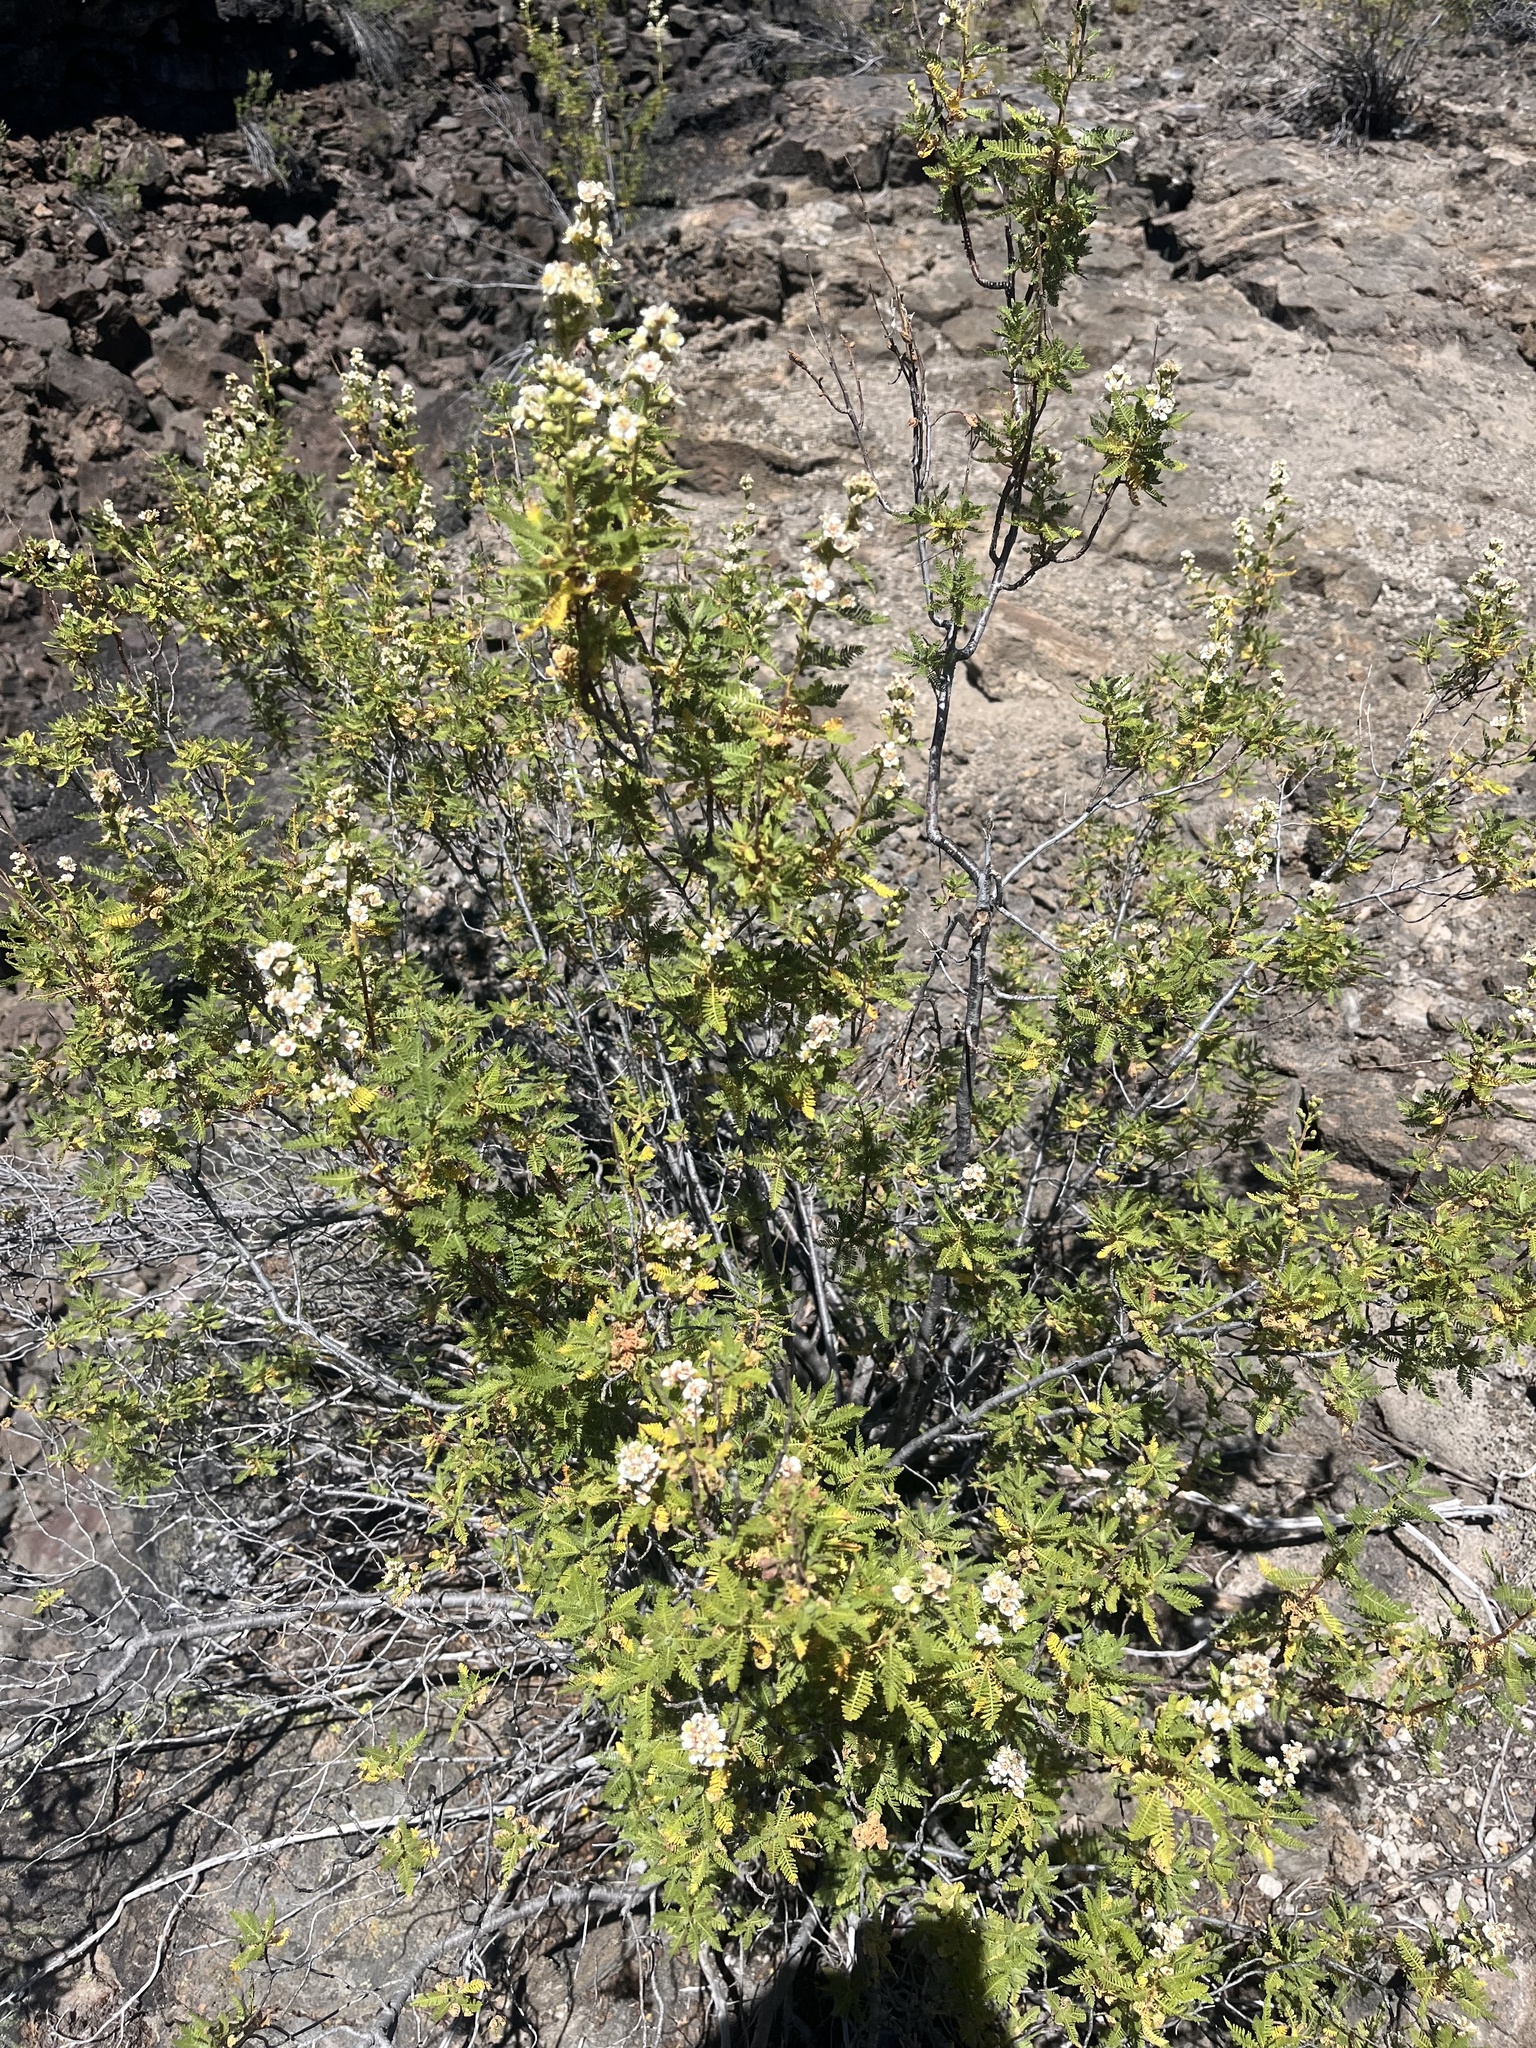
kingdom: Plantae
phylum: Tracheophyta
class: Magnoliopsida
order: Rosales
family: Rosaceae
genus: Chamaebatiaria
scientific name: Chamaebatiaria millefolium
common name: Fernbush
